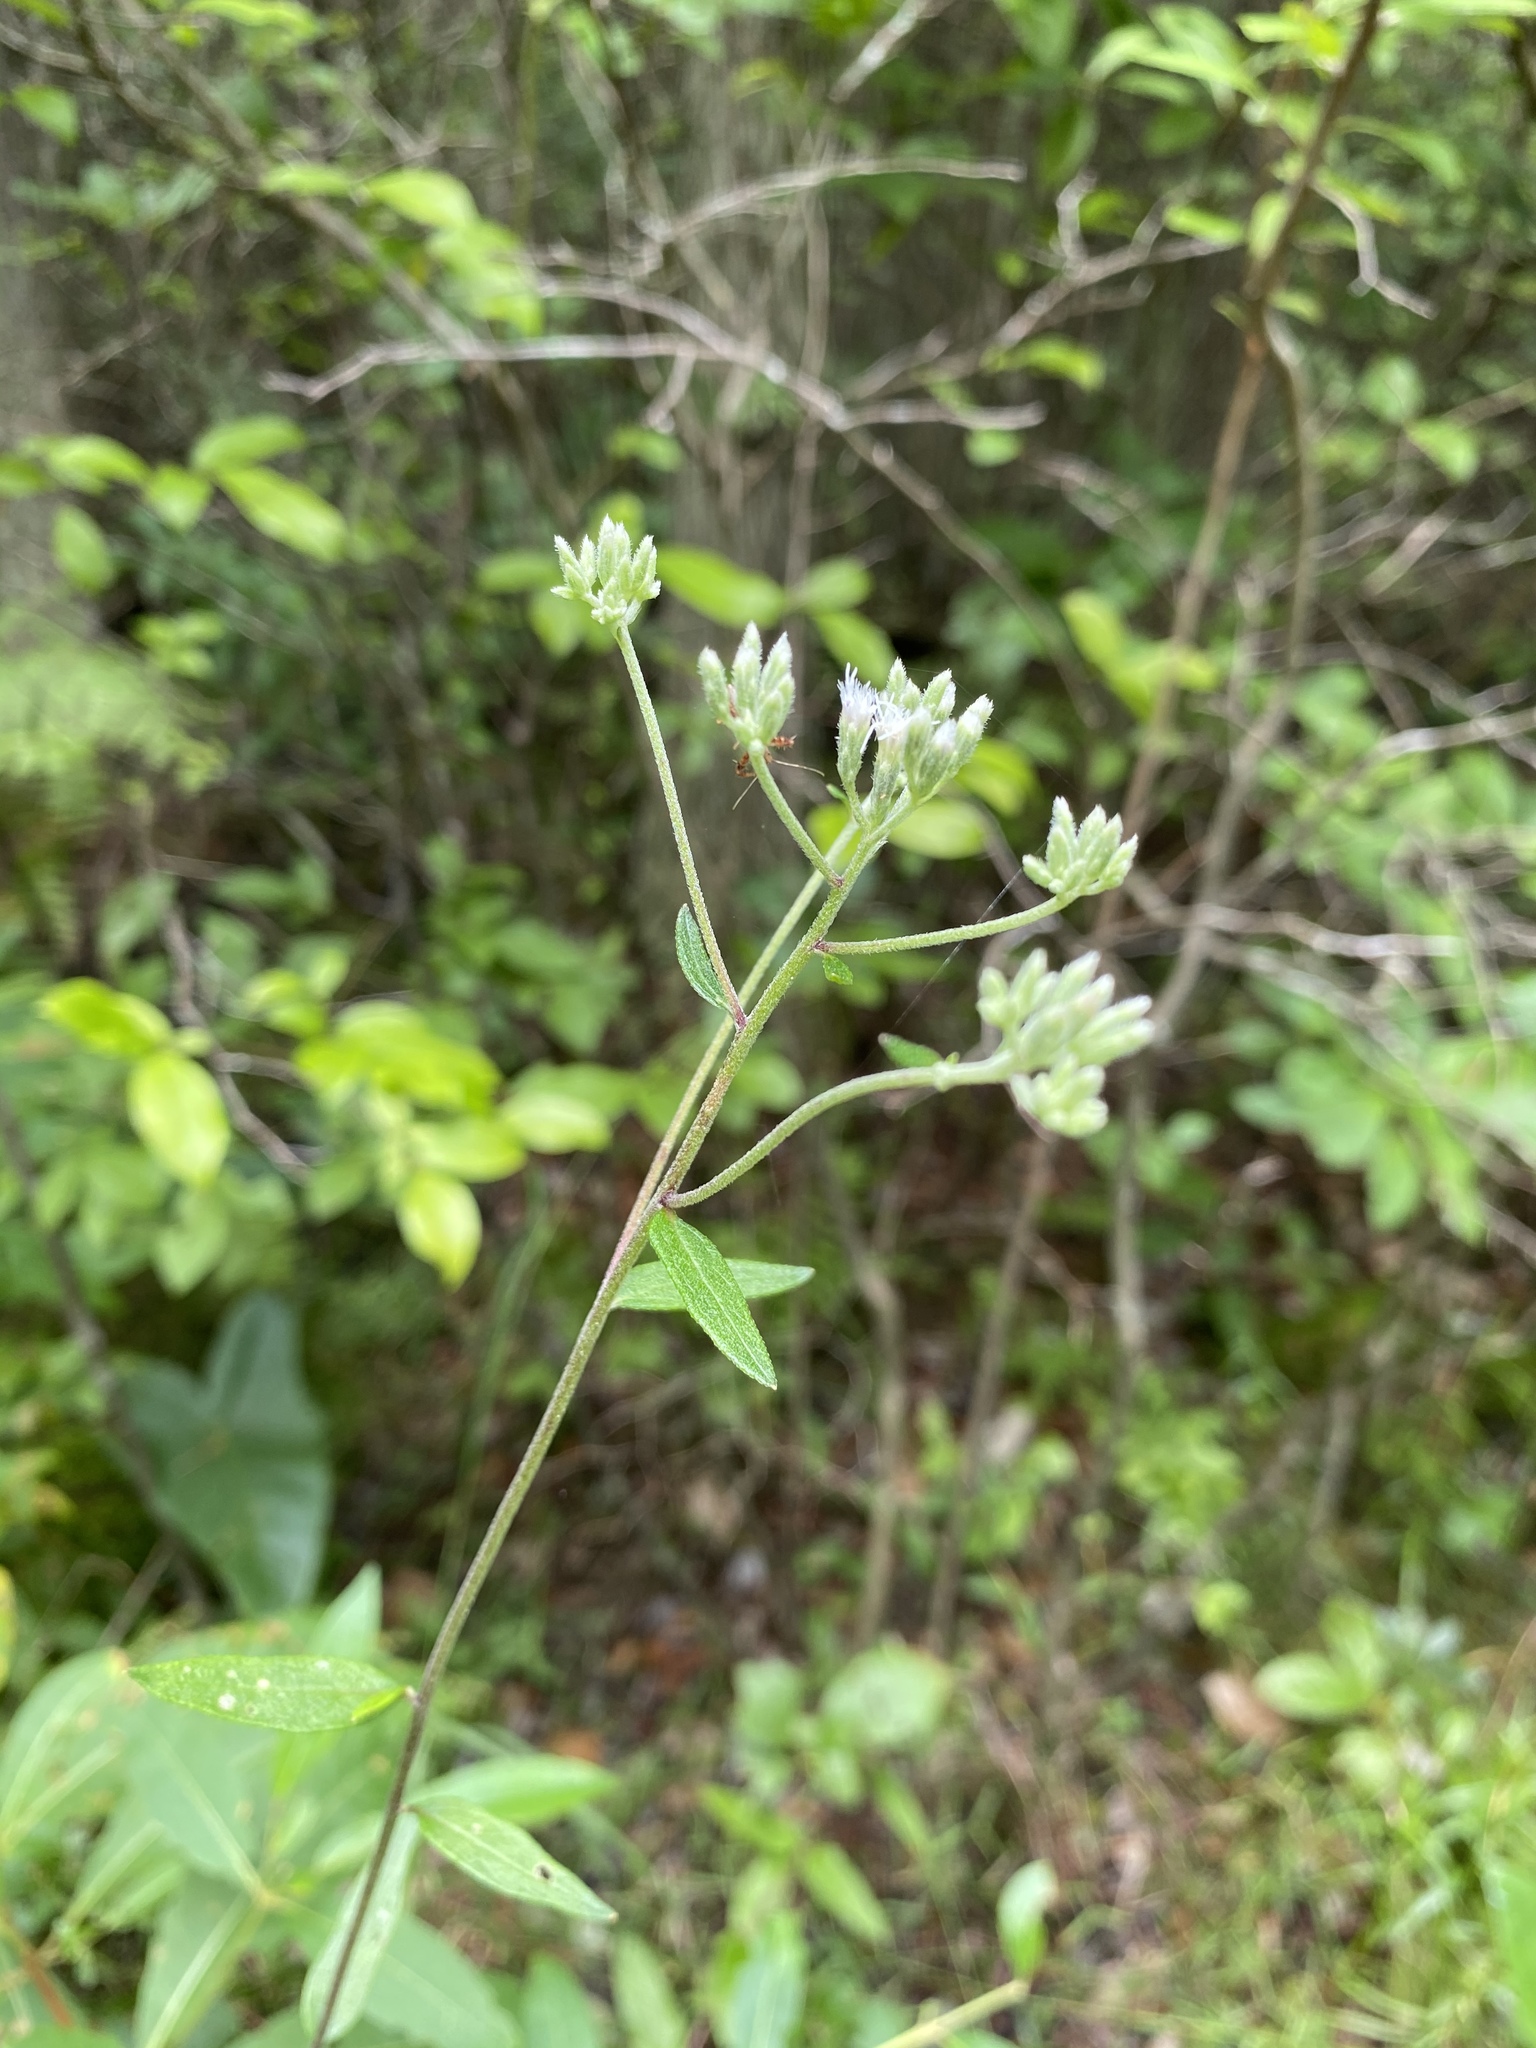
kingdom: Plantae
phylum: Tracheophyta
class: Magnoliopsida
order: Asterales
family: Asteraceae
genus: Eupatorium
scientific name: Eupatorium pilosum
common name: Rough boneset
